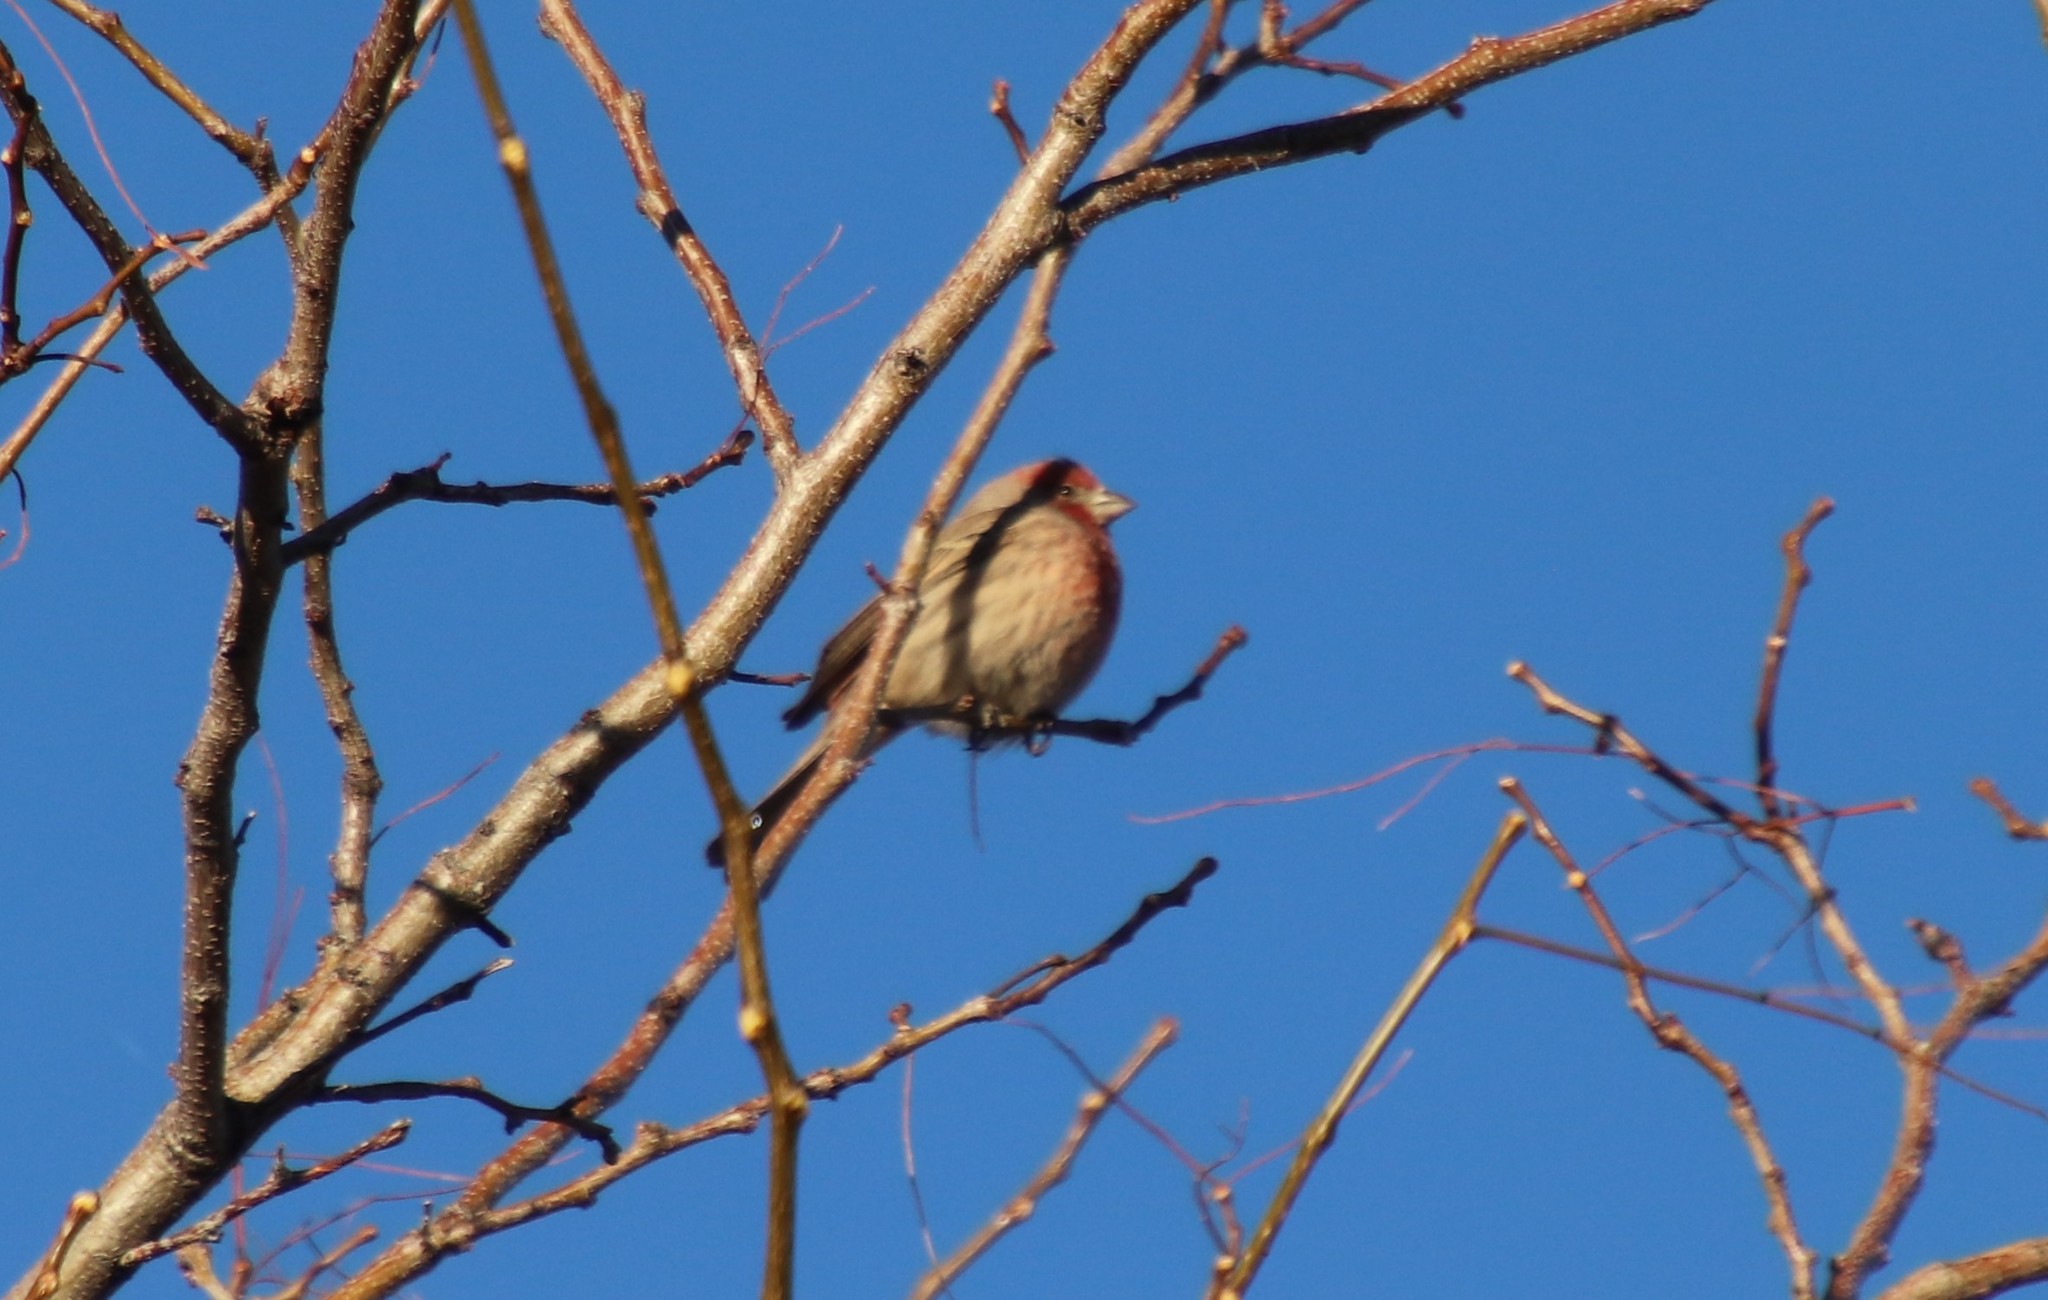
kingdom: Animalia
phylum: Chordata
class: Aves
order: Passeriformes
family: Fringillidae
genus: Haemorhous
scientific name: Haemorhous mexicanus
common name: House finch
